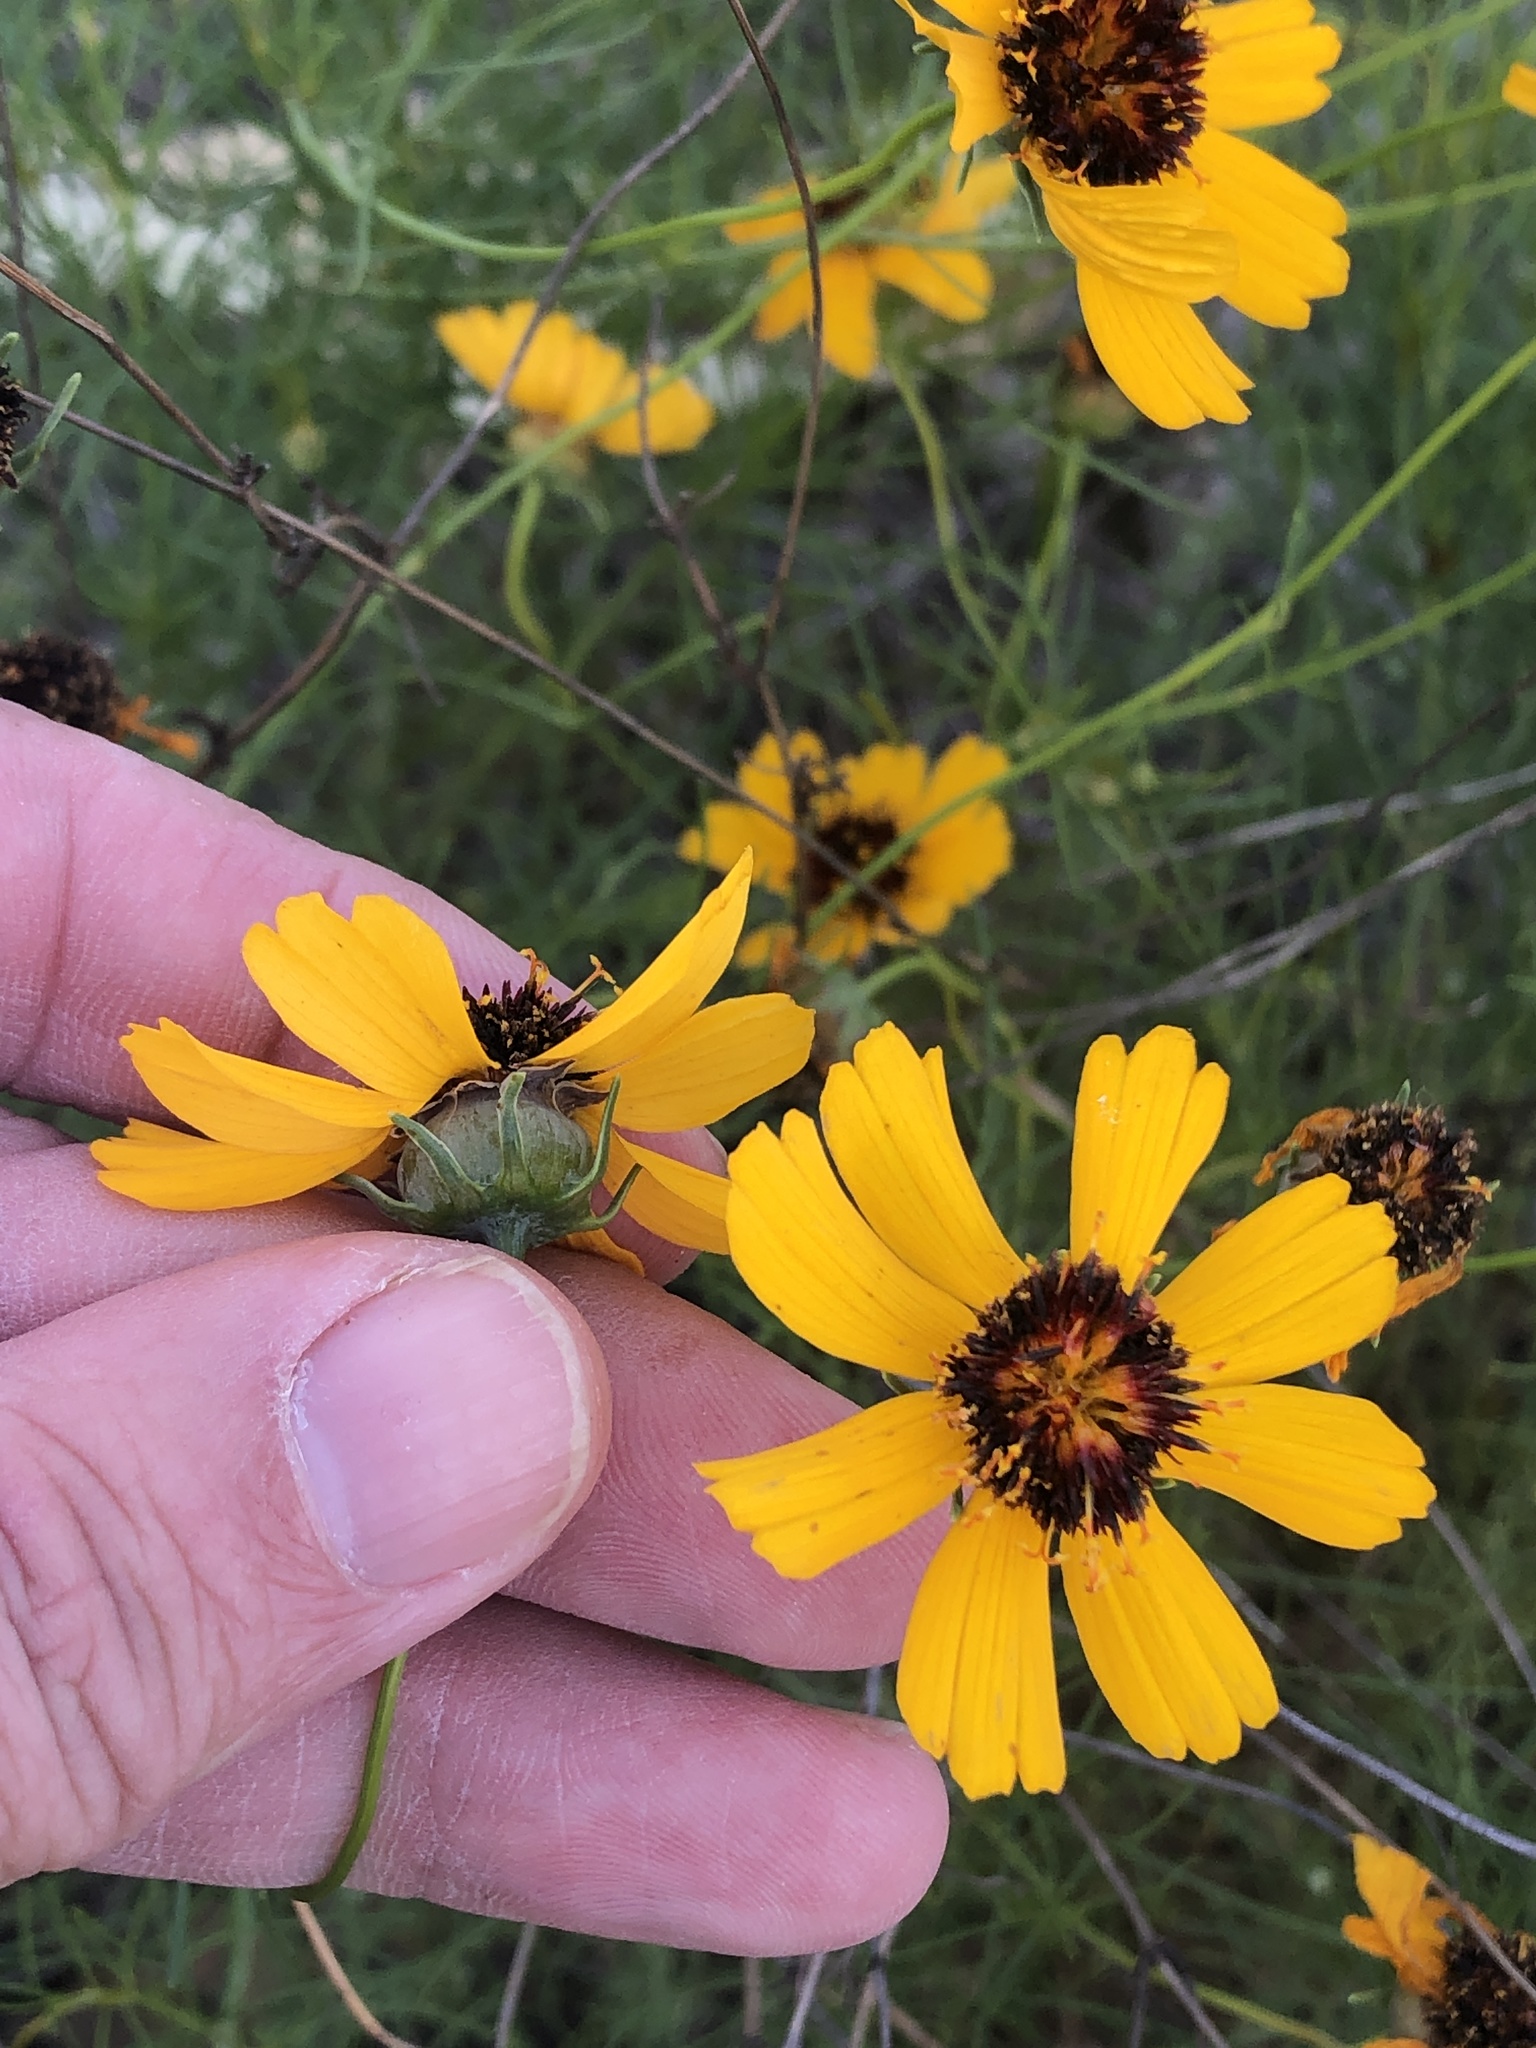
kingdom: Plantae
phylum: Tracheophyta
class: Magnoliopsida
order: Asterales
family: Asteraceae
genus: Thelesperma
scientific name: Thelesperma filifolium
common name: Stiff greenthread
